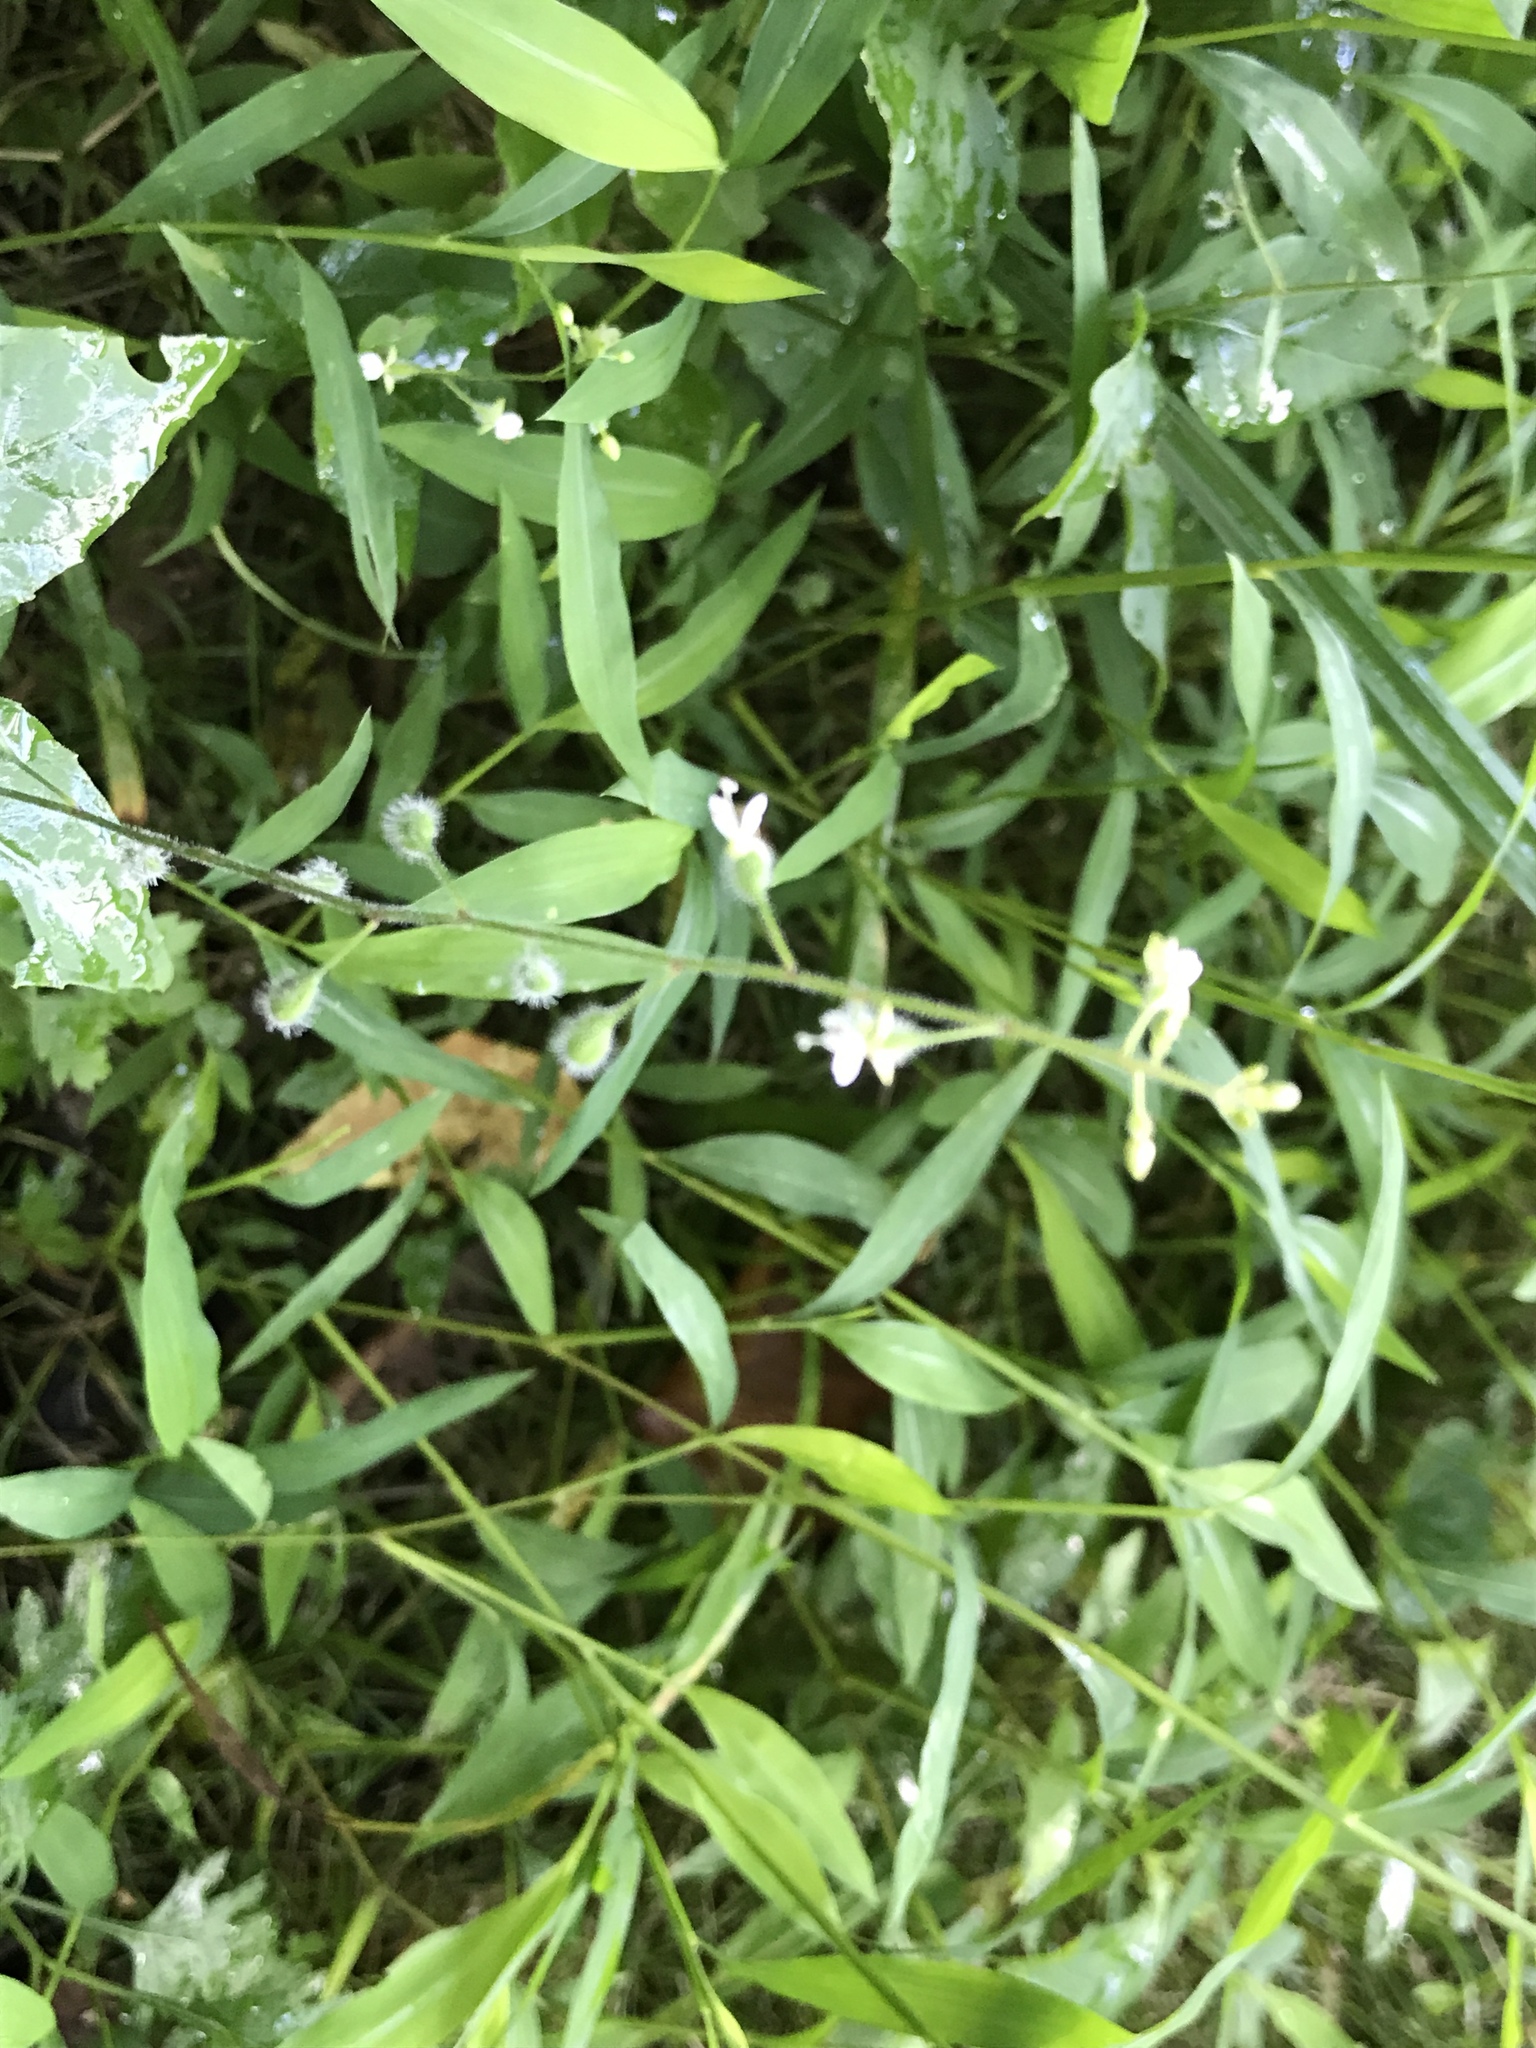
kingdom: Plantae
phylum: Tracheophyta
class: Magnoliopsida
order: Myrtales
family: Onagraceae
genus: Circaea
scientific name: Circaea canadensis
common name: Broad-leaved enchanter's nightshade
